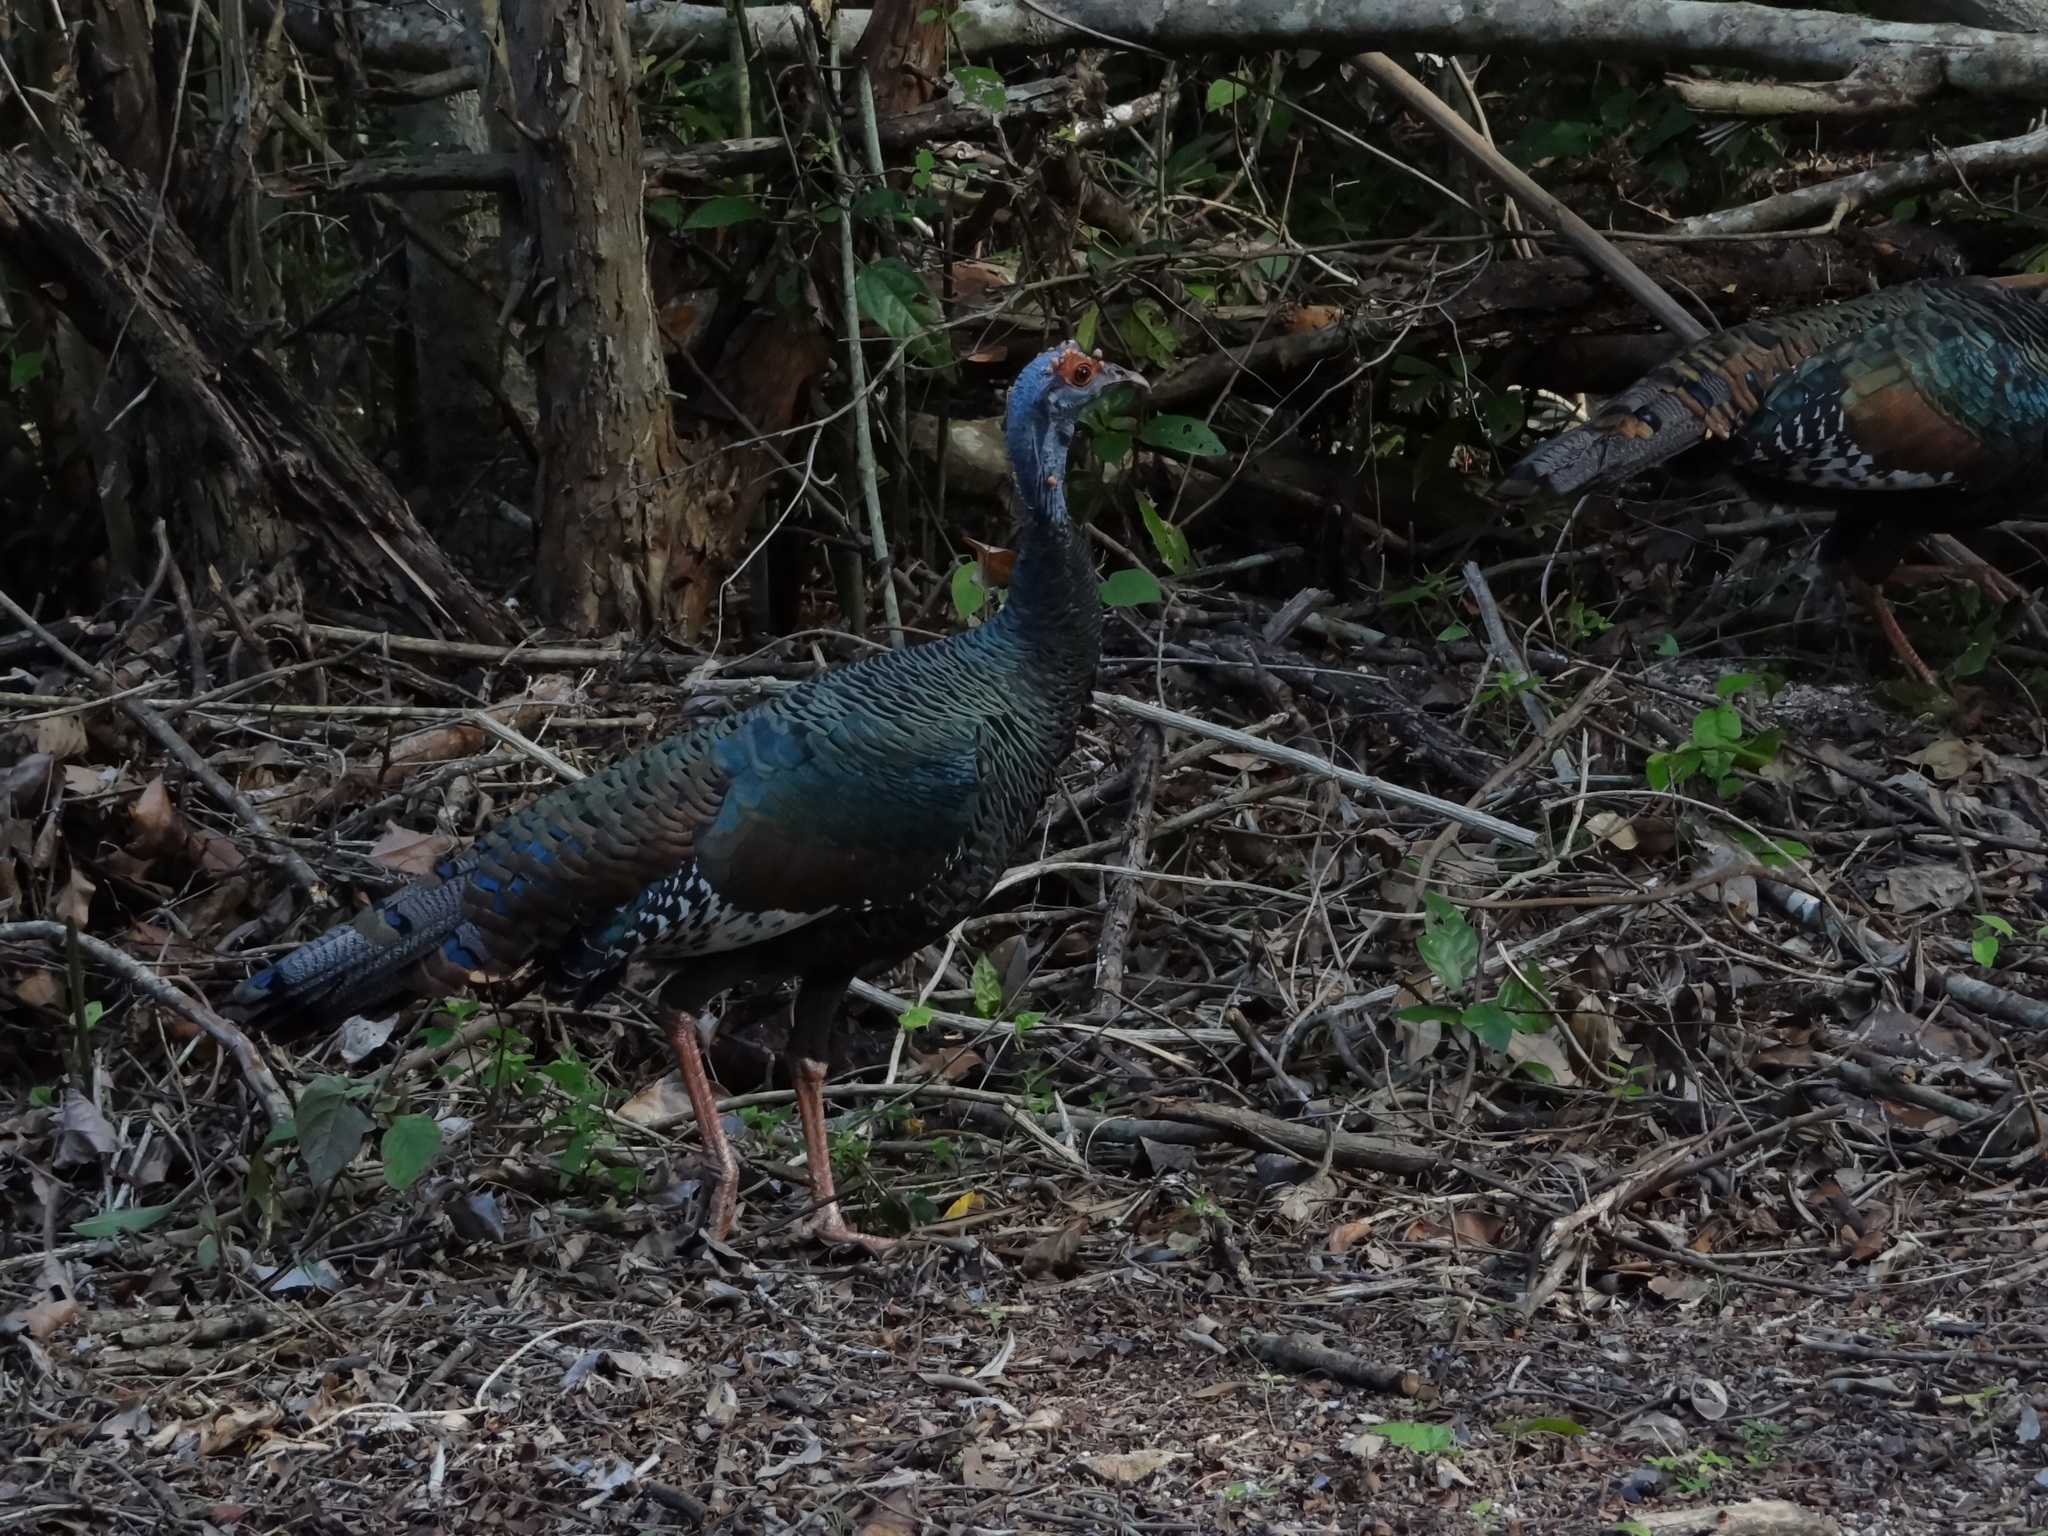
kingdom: Animalia
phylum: Chordata
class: Aves
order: Galliformes
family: Phasianidae
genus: Meleagris
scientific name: Meleagris ocellata
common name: Ocellated turkey
